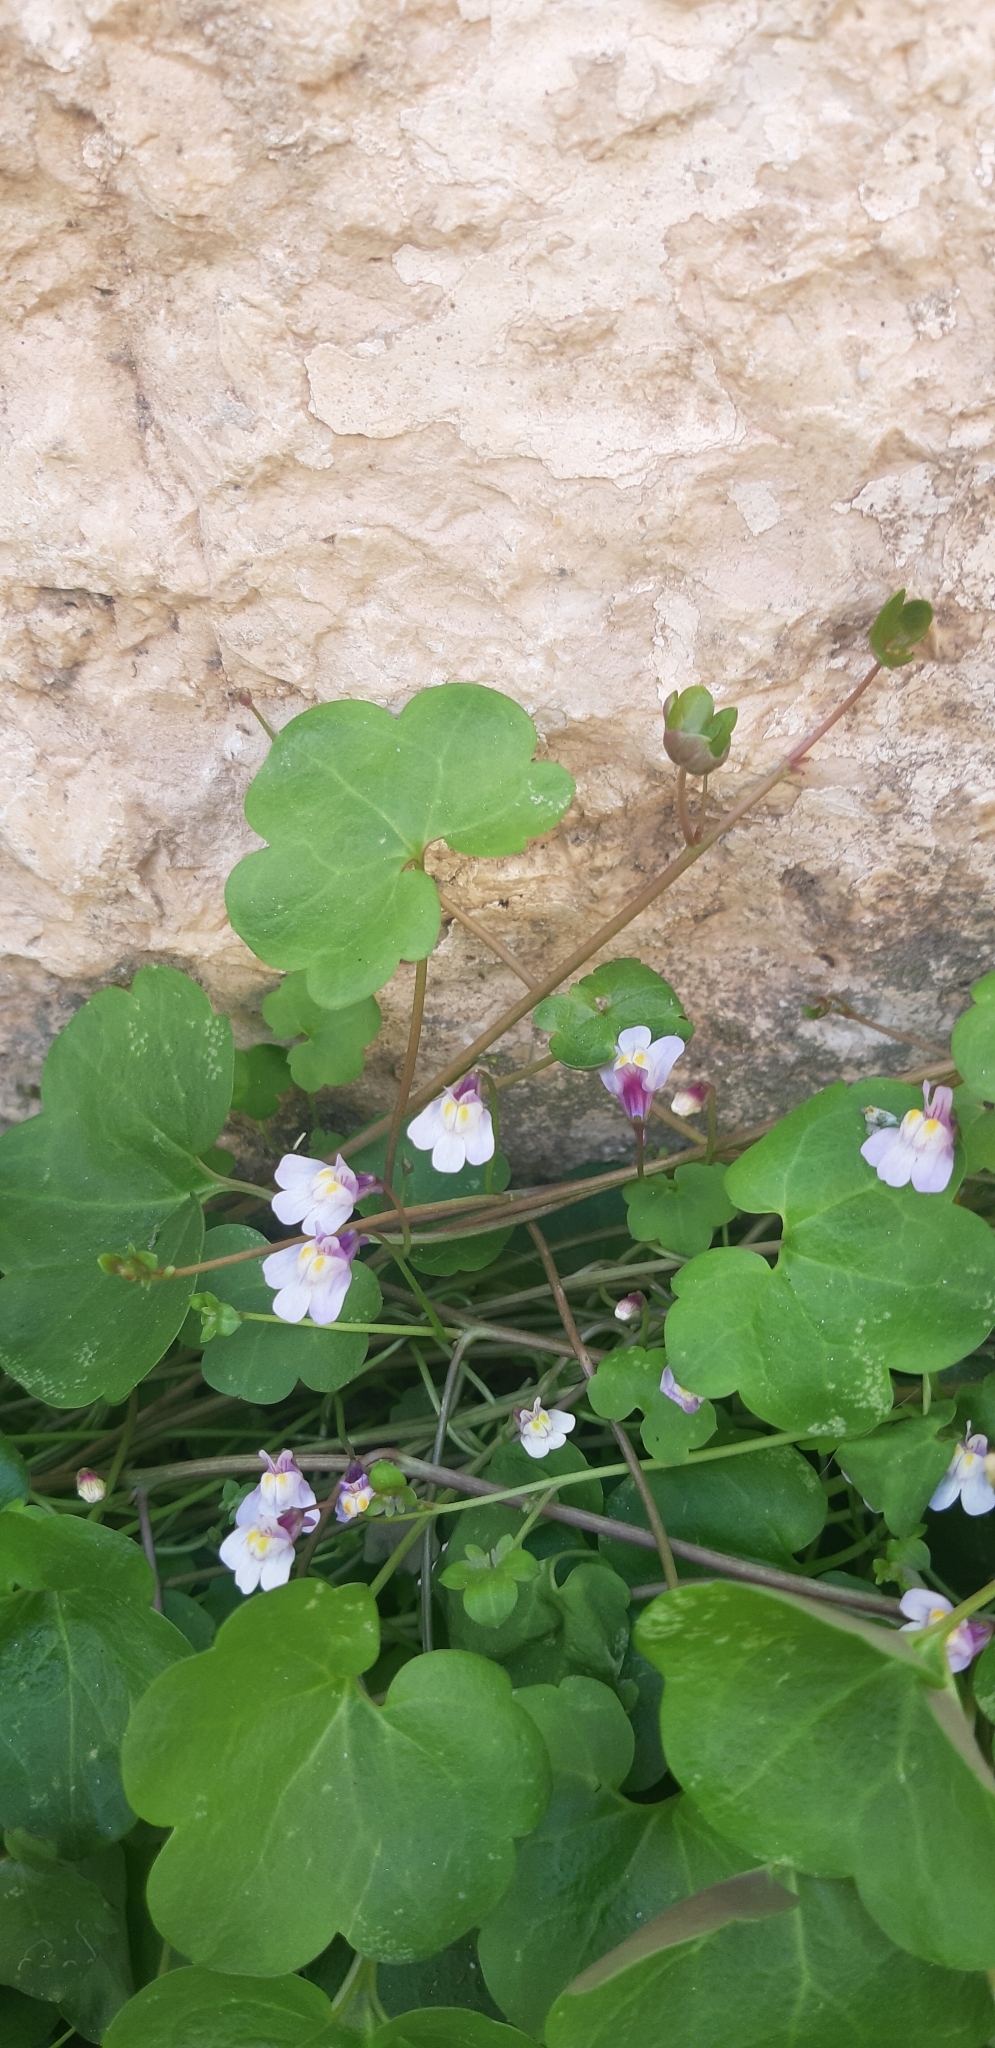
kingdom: Plantae
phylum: Tracheophyta
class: Magnoliopsida
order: Lamiales
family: Plantaginaceae
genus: Cymbalaria
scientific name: Cymbalaria muralis
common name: Ivy-leaved toadflax
